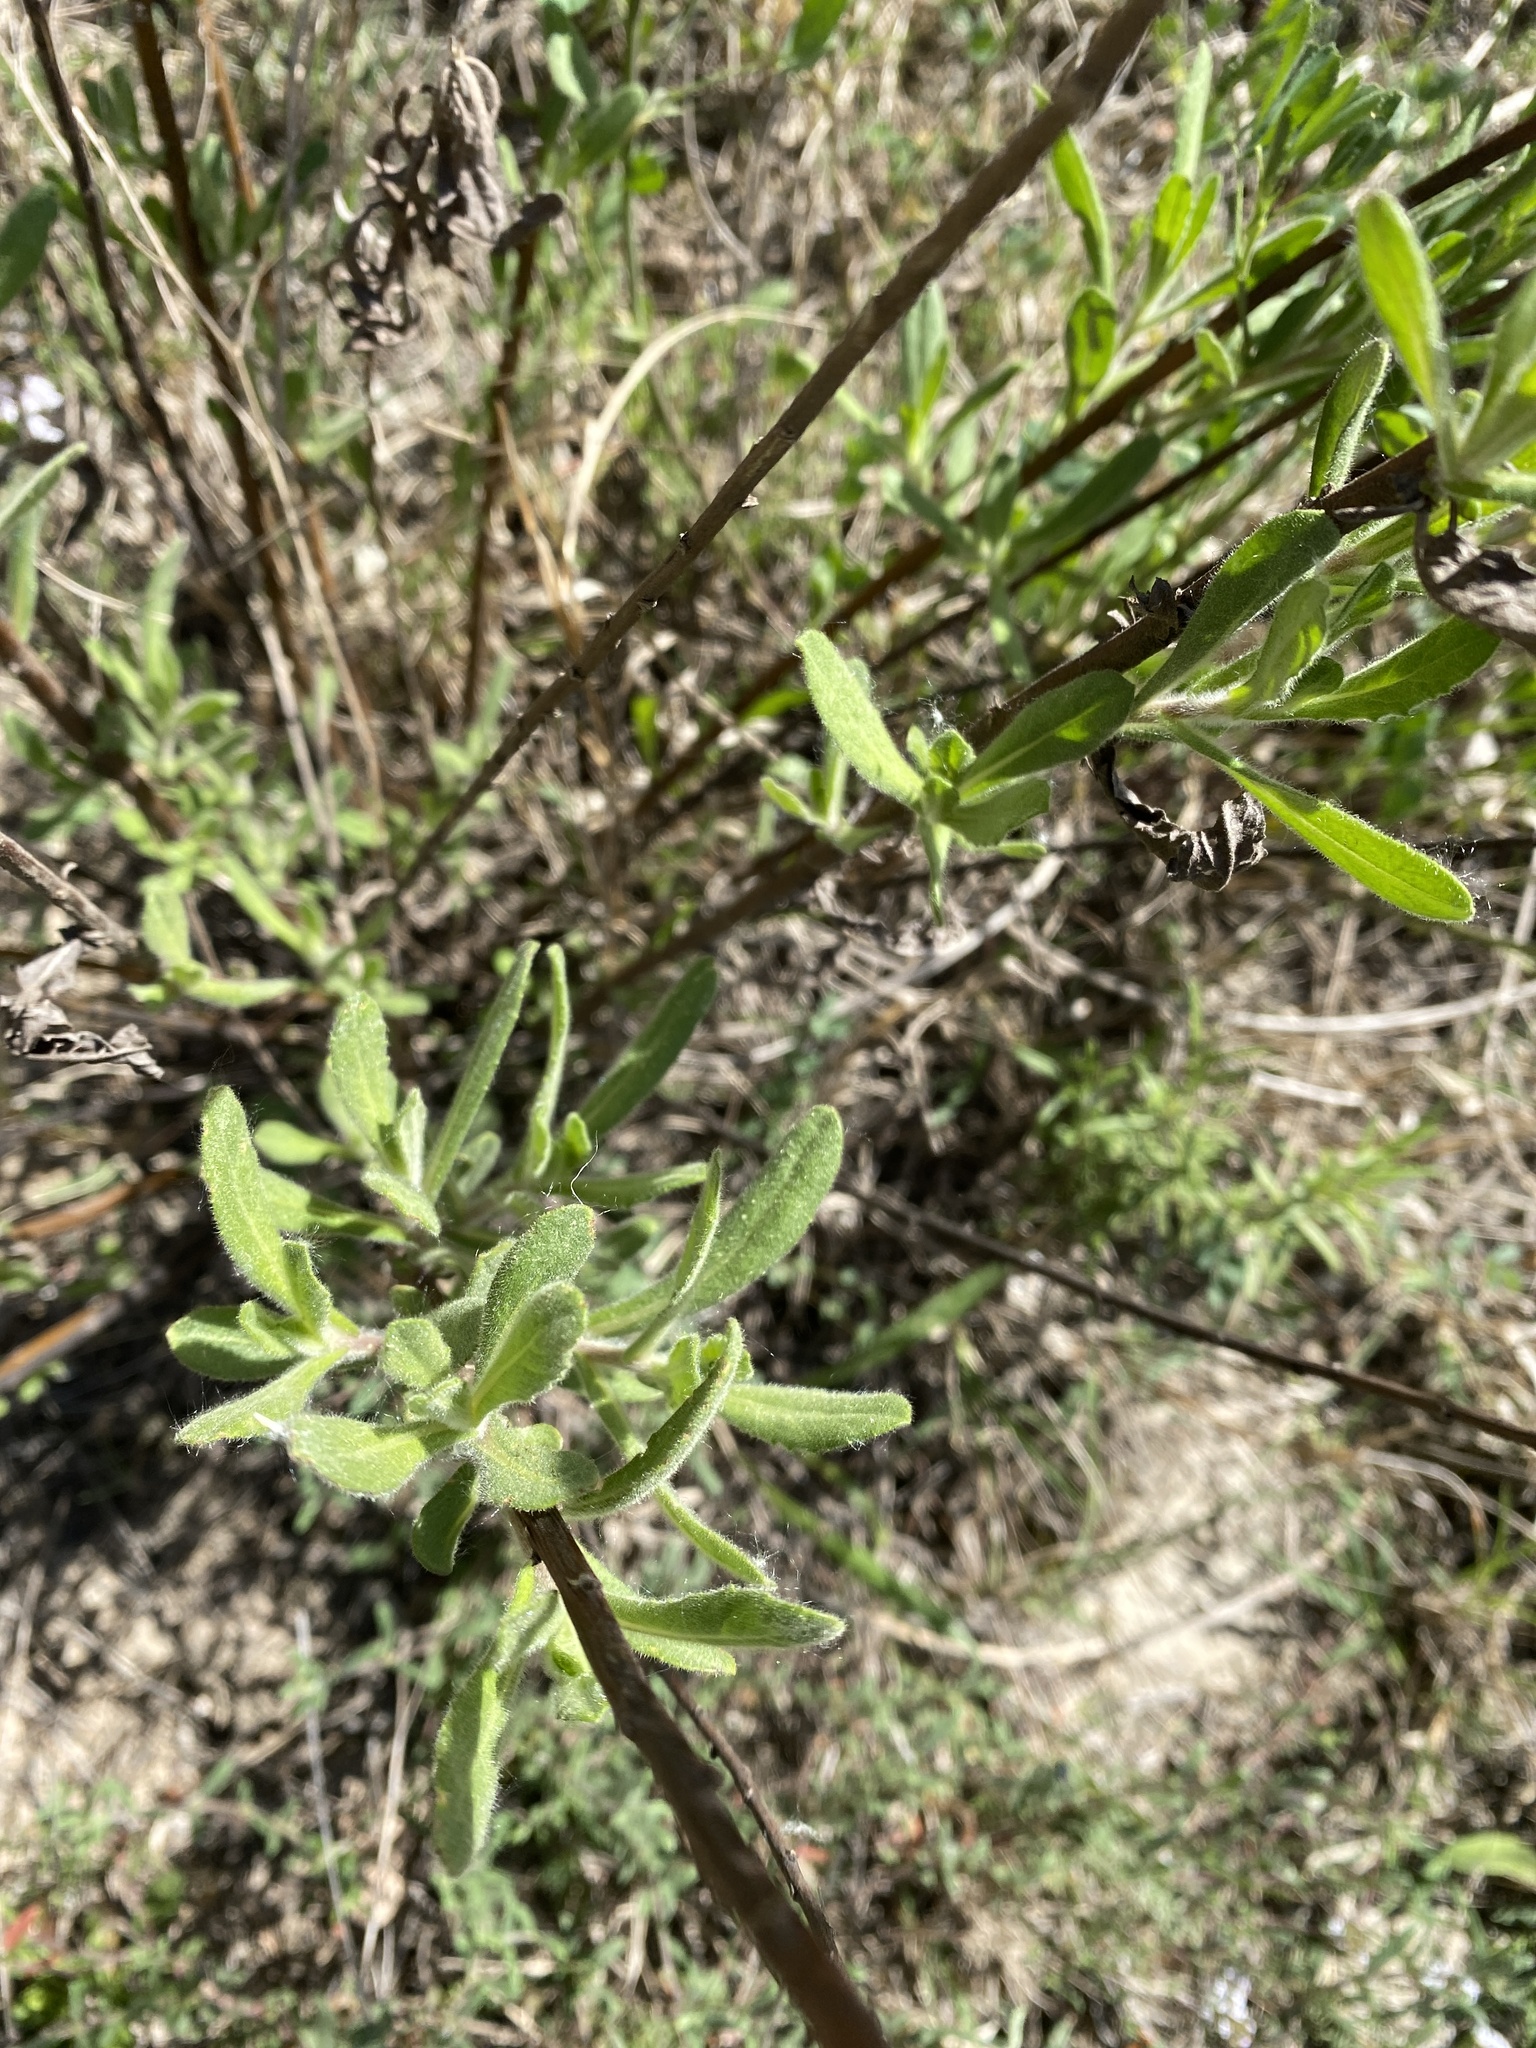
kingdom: Plantae
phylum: Tracheophyta
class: Magnoliopsida
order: Asterales
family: Asteraceae
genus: Dittrichia
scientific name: Dittrichia viscosa
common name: Woody fleabane
